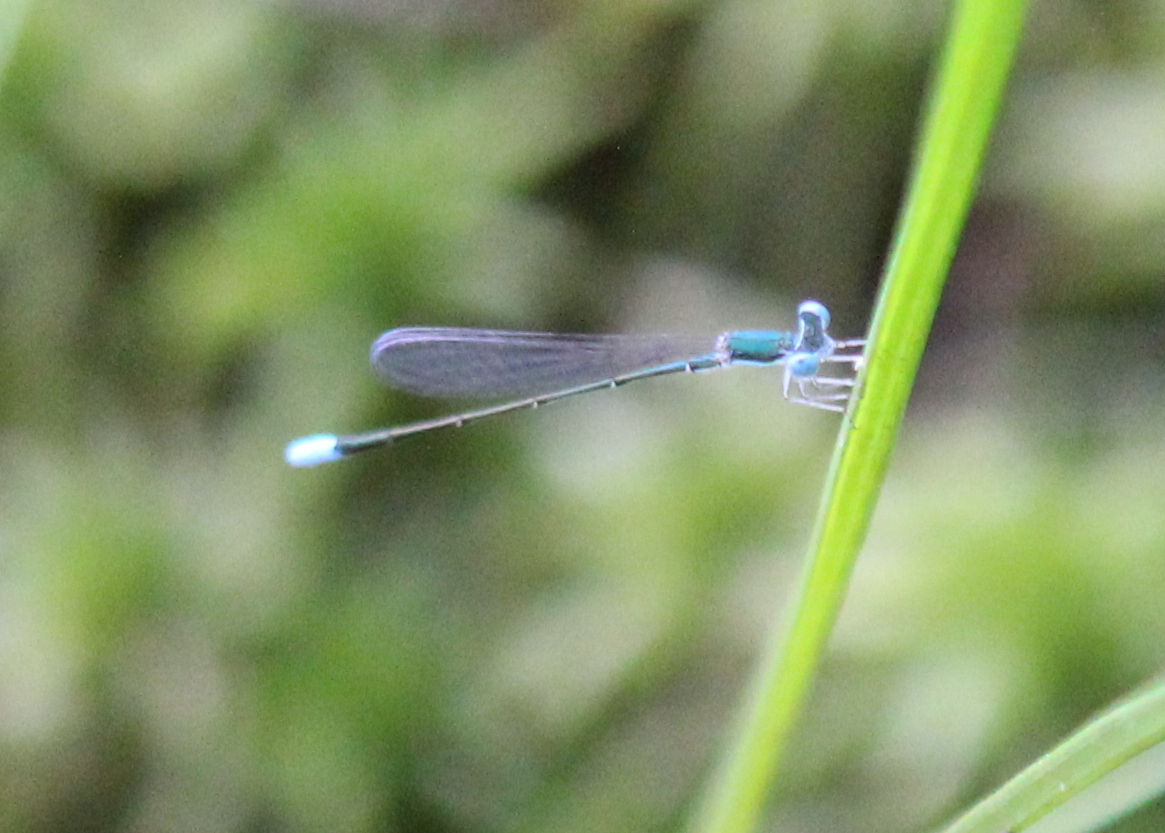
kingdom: Animalia
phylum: Arthropoda
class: Insecta
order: Odonata
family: Coenagrionidae
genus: Nehalennia
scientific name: Nehalennia gracilis
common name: Sphagnum sprite
